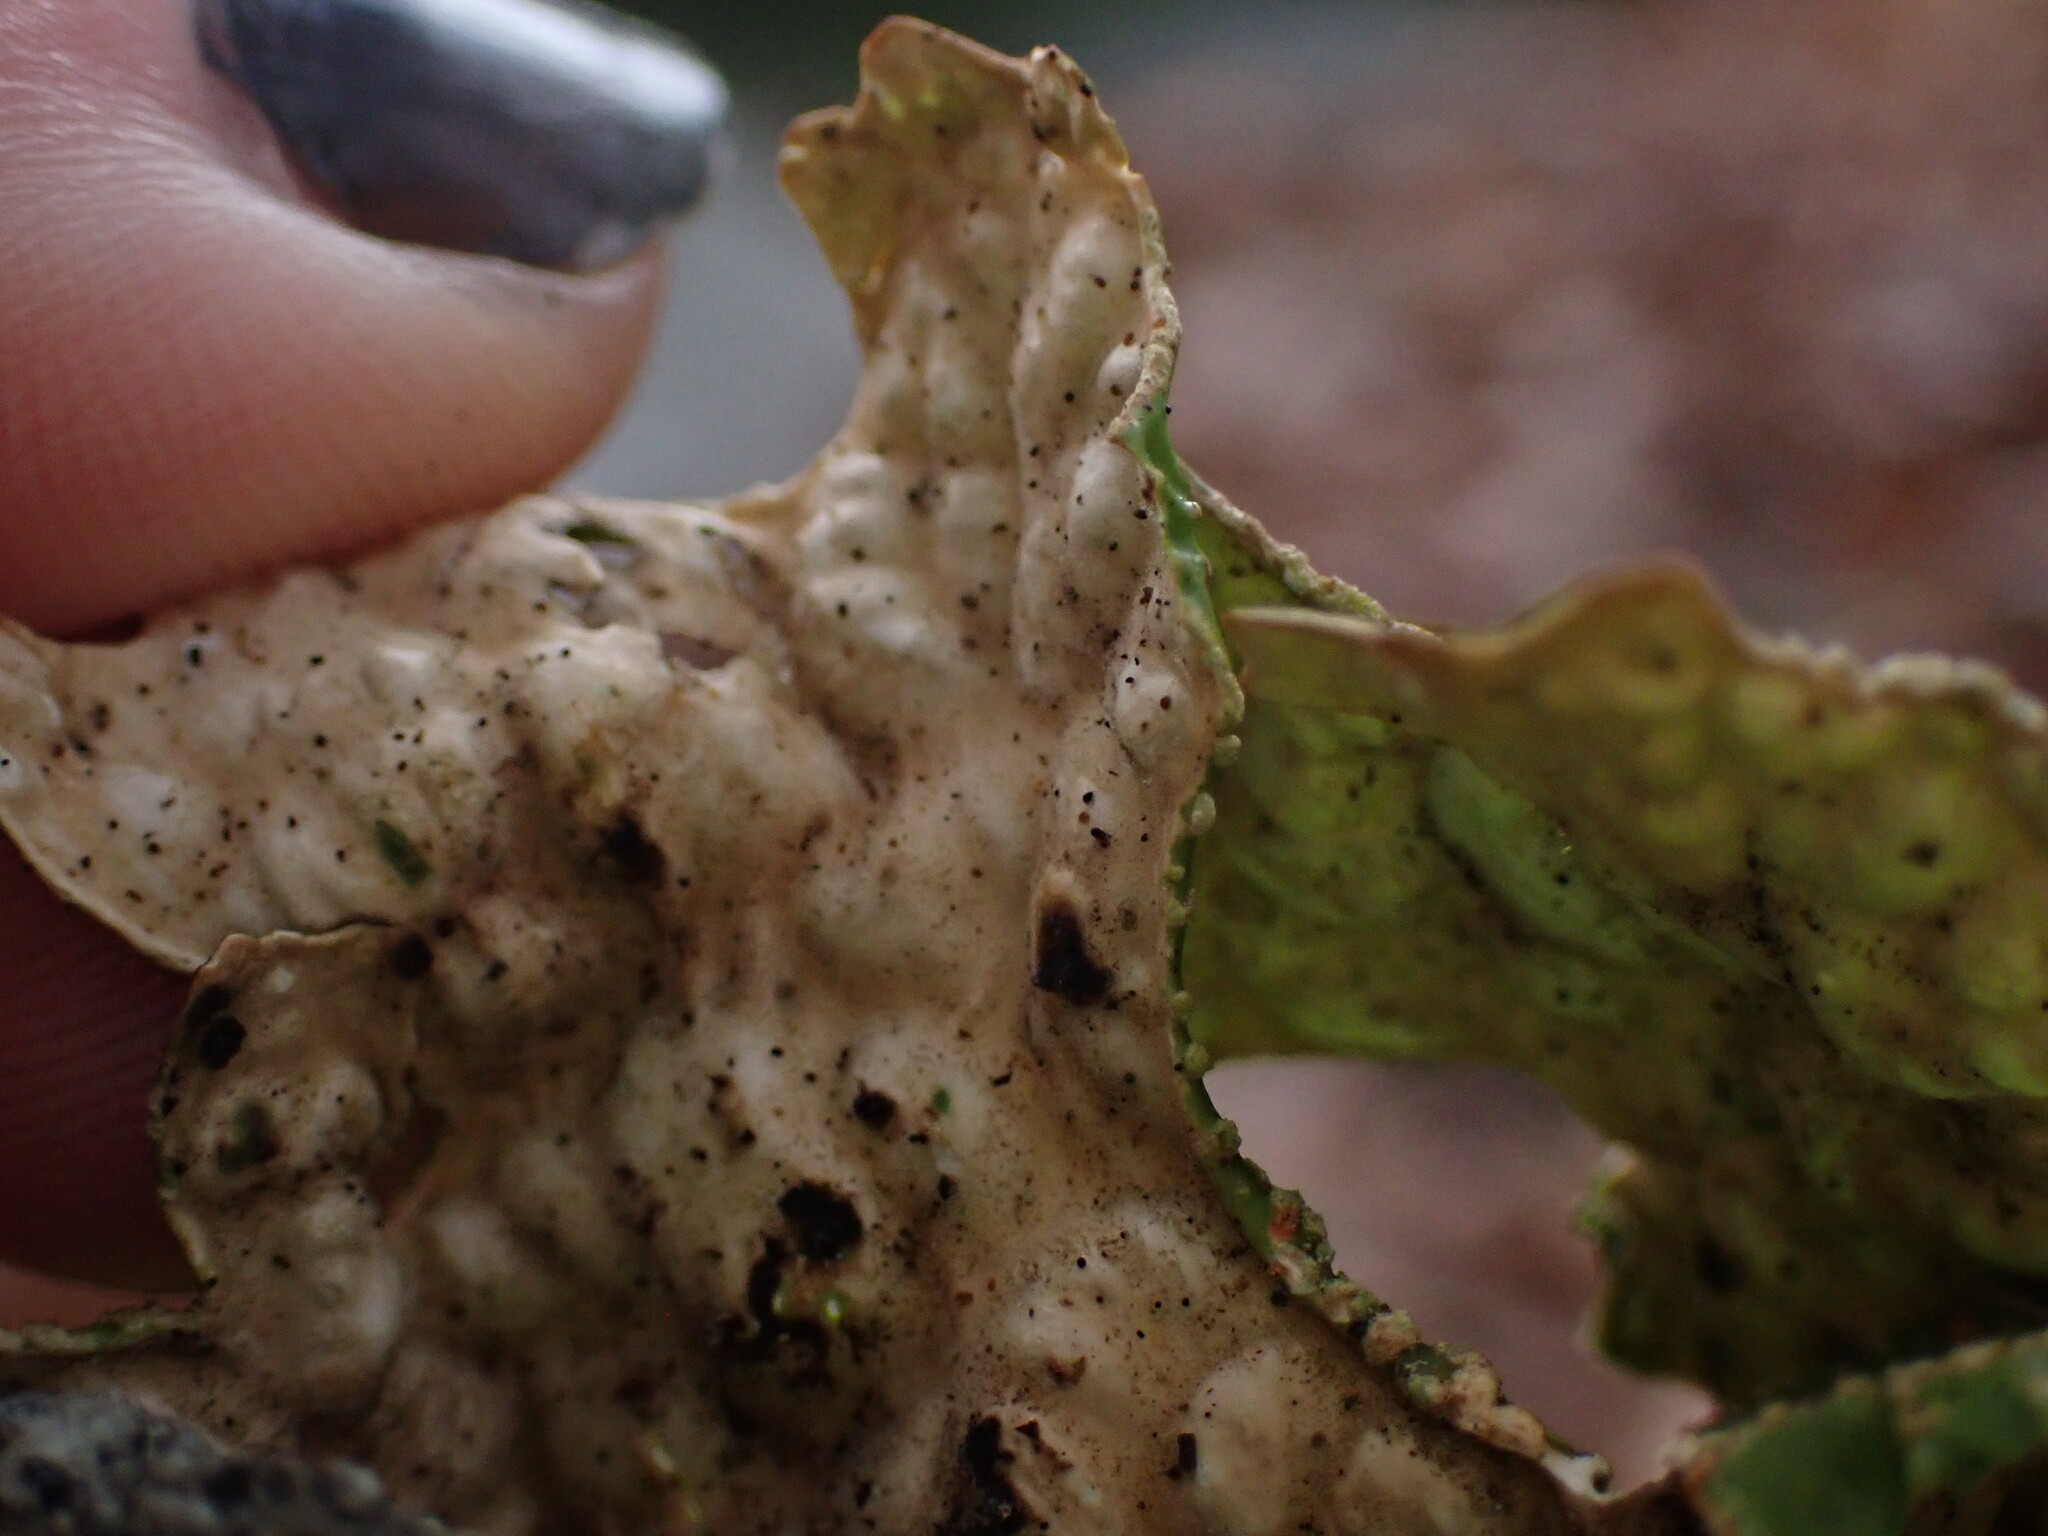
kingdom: Fungi
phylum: Ascomycota
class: Lecanoromycetes
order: Peltigerales
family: Lobariaceae
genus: Lobaria
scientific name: Lobaria pulmonaria
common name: Lungwort
